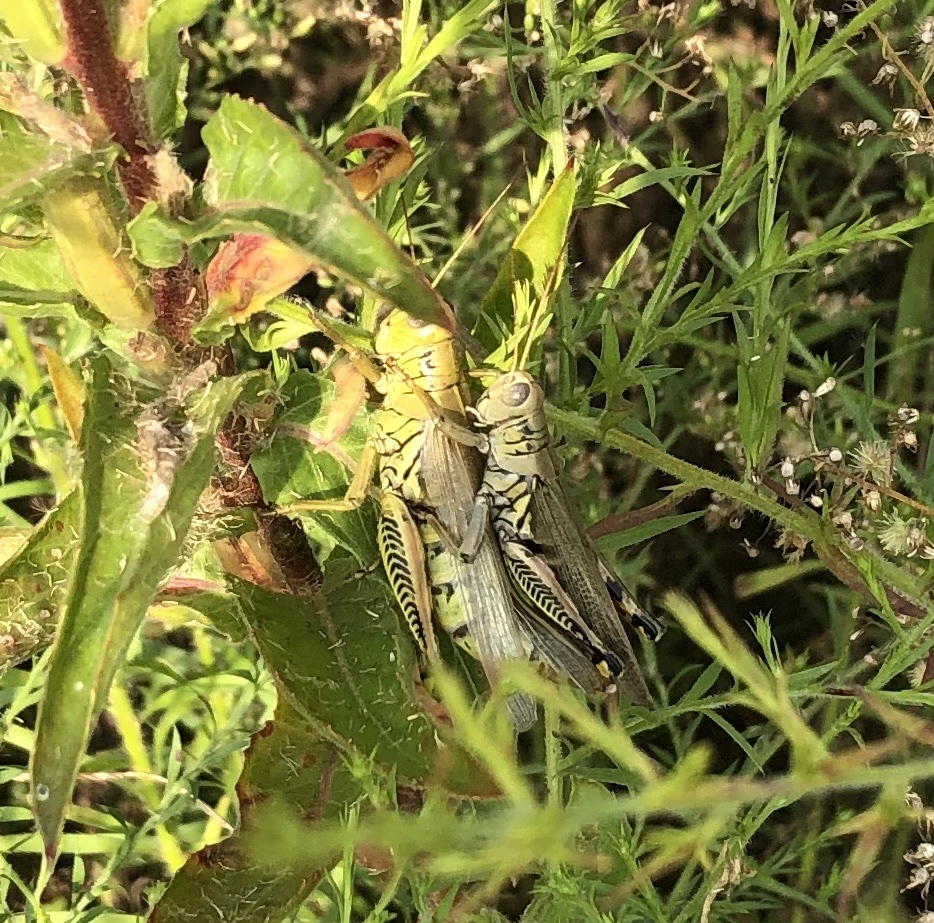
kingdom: Animalia
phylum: Arthropoda
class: Insecta
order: Orthoptera
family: Acrididae
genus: Melanoplus
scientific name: Melanoplus differentialis
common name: Differential grasshopper
